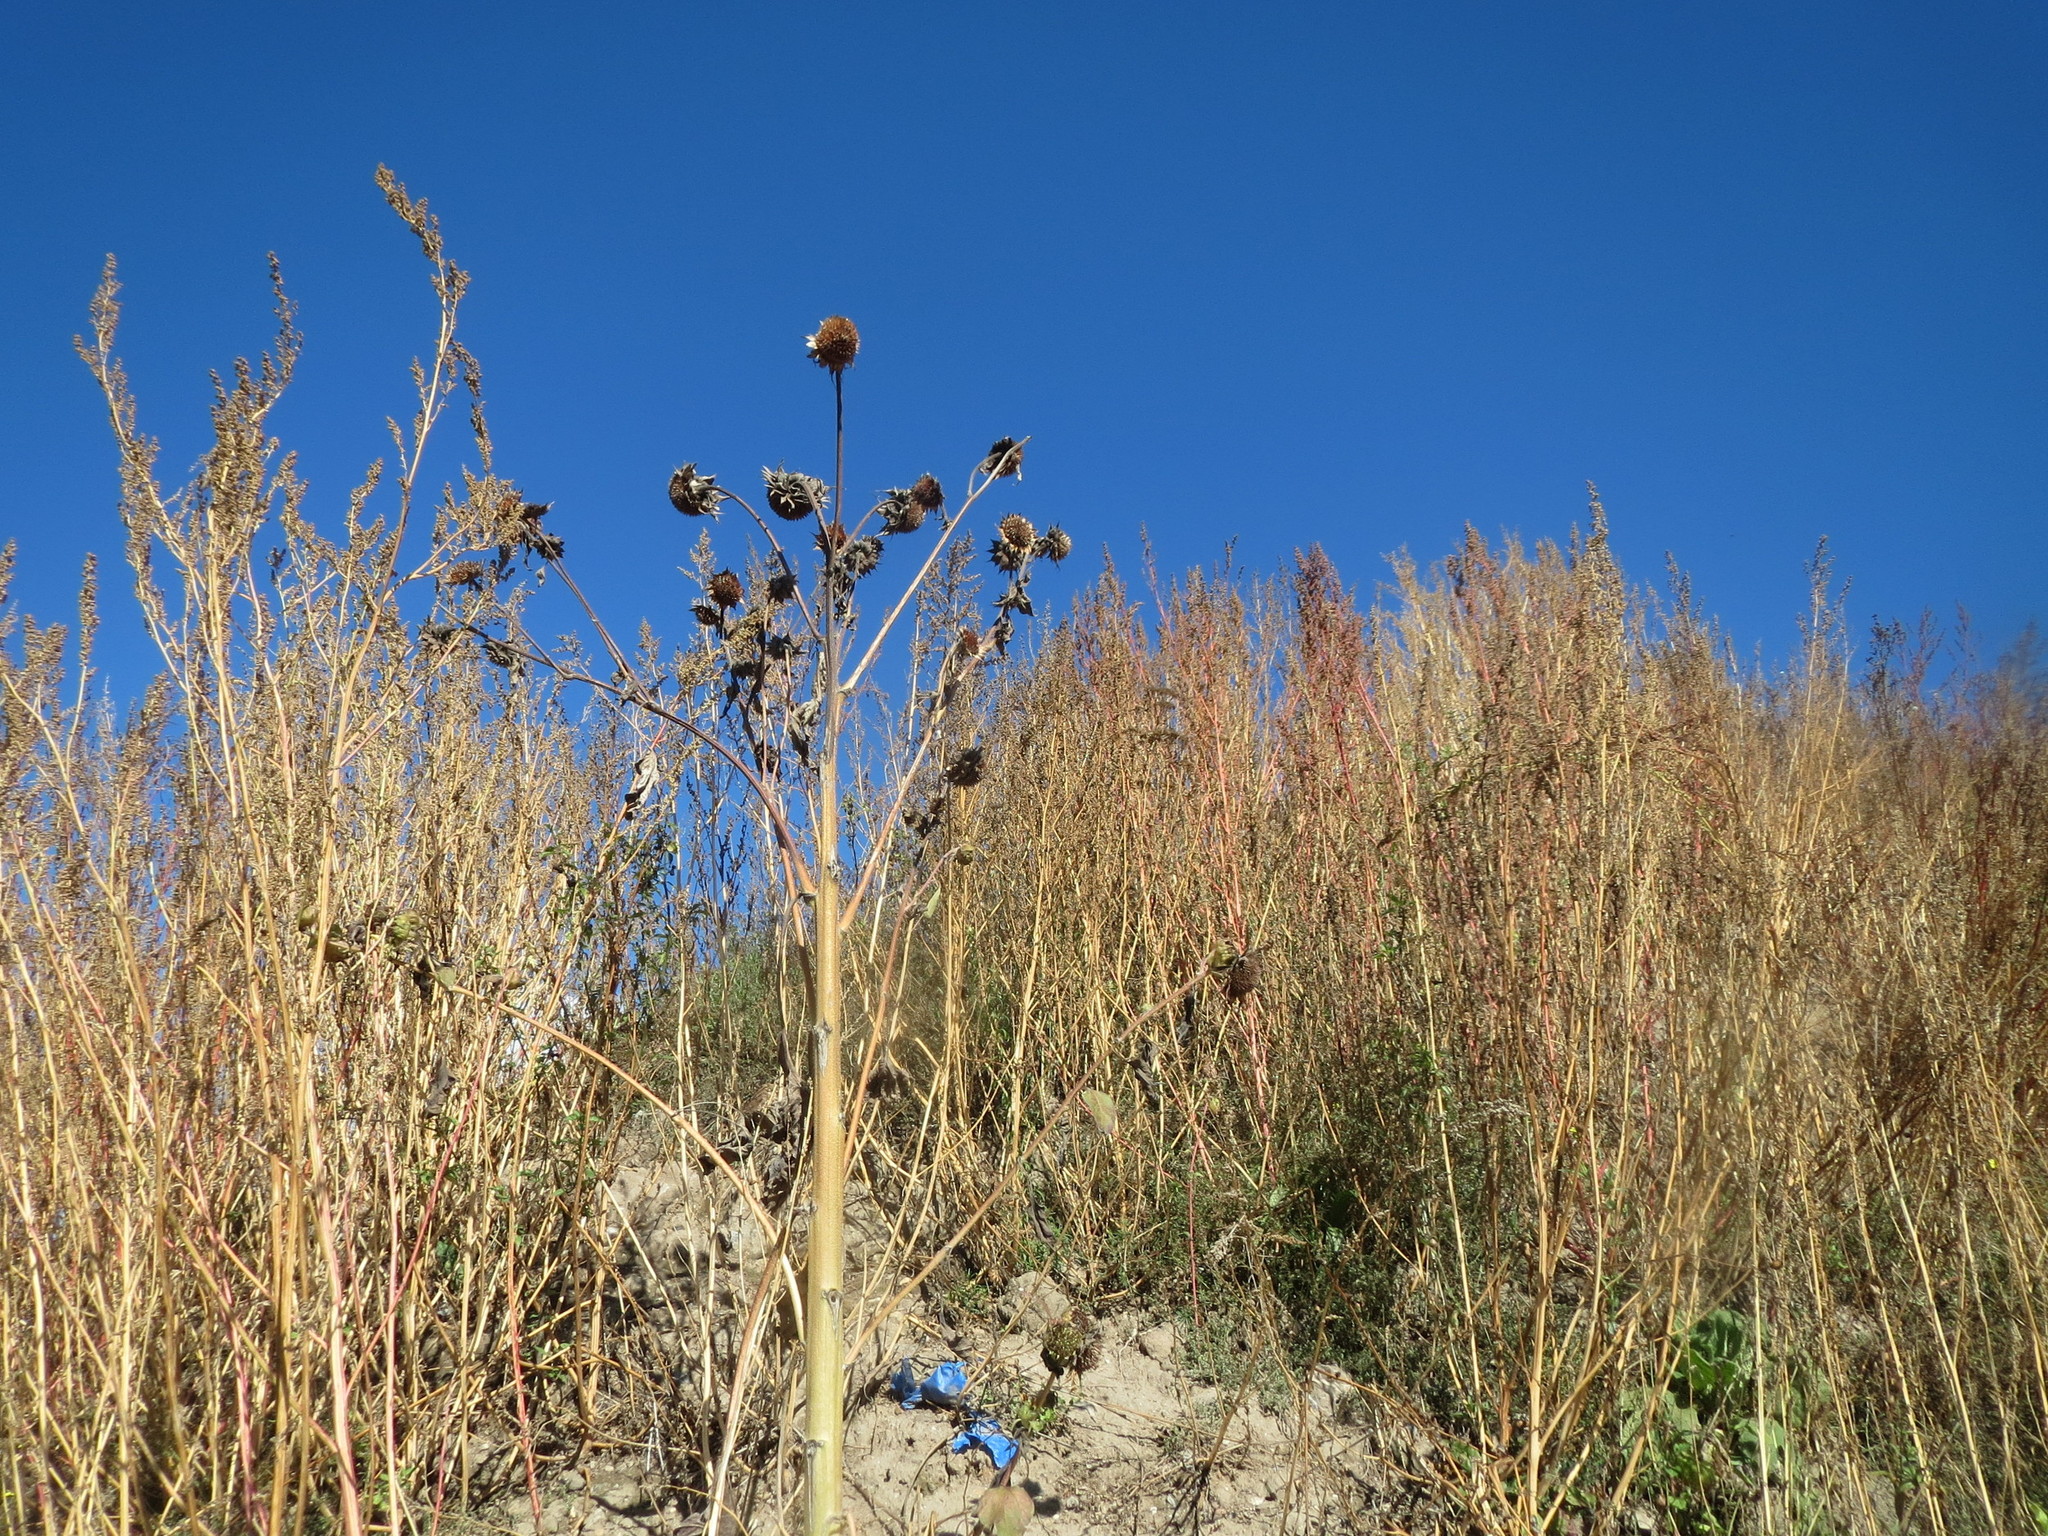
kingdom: Plantae
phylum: Tracheophyta
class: Magnoliopsida
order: Asterales
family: Asteraceae
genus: Helianthus
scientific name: Helianthus annuus
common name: Sunflower
